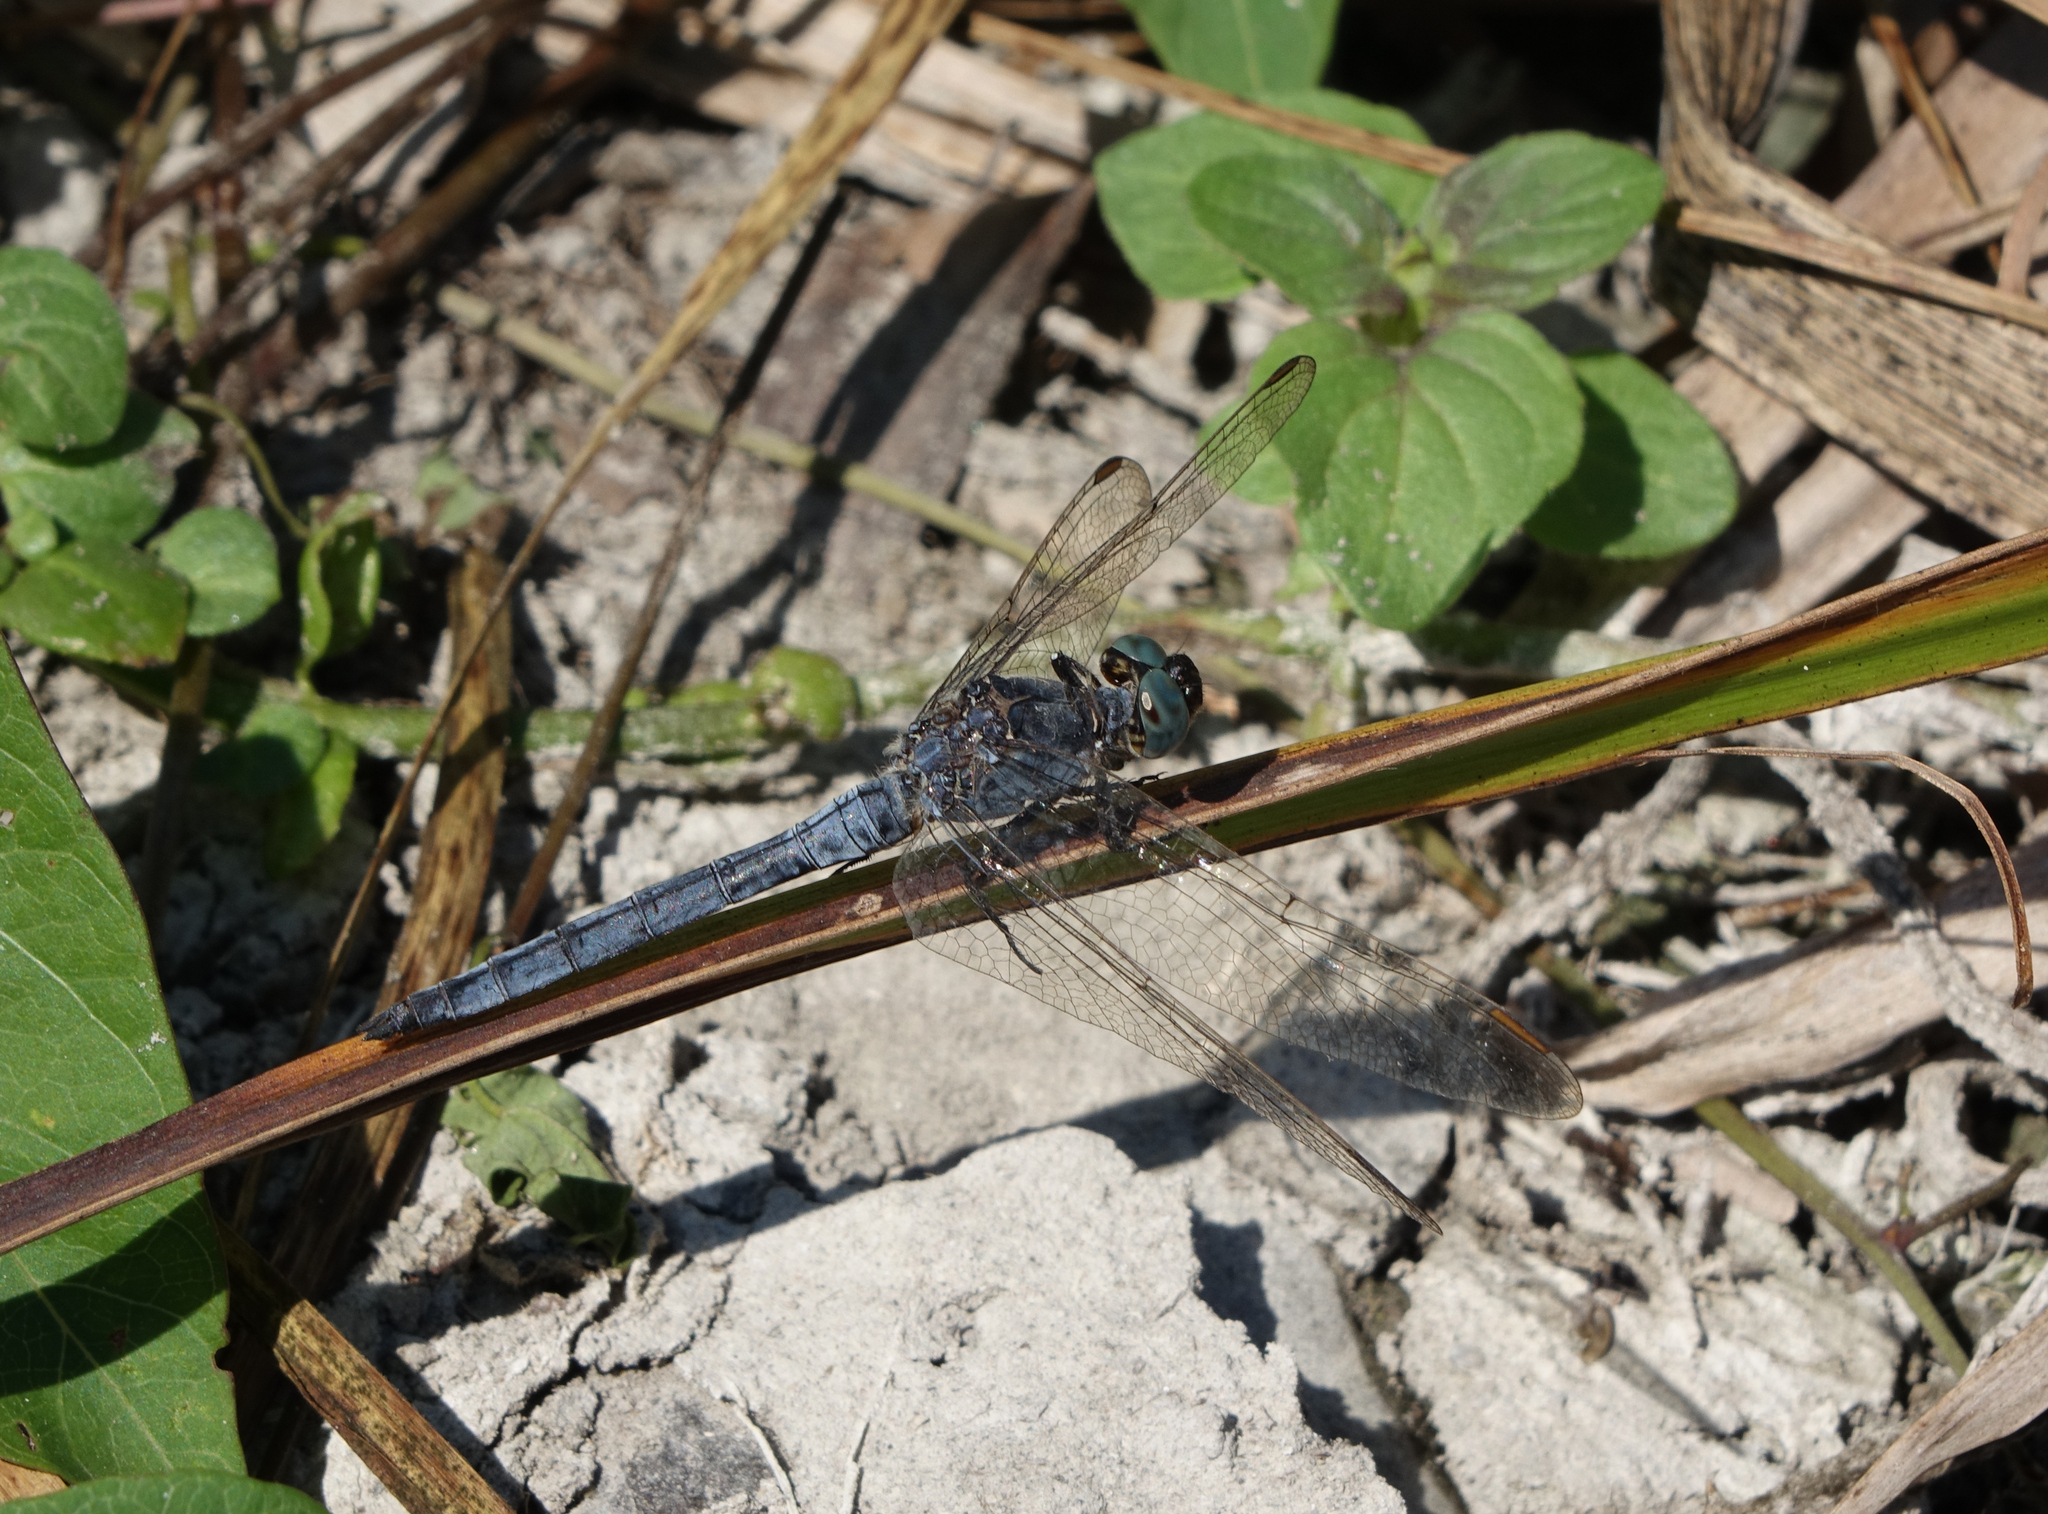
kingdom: Animalia
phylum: Arthropoda
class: Insecta
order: Odonata
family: Libellulidae
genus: Orthetrum
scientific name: Orthetrum coerulescens
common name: Keeled skimmer
